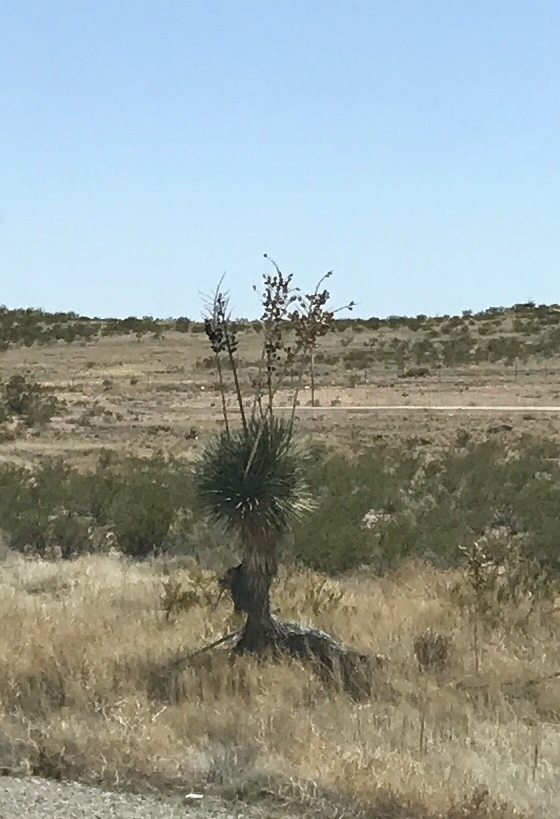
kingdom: Plantae
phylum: Tracheophyta
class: Liliopsida
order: Asparagales
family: Asparagaceae
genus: Yucca
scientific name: Yucca elata
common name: Palmella
